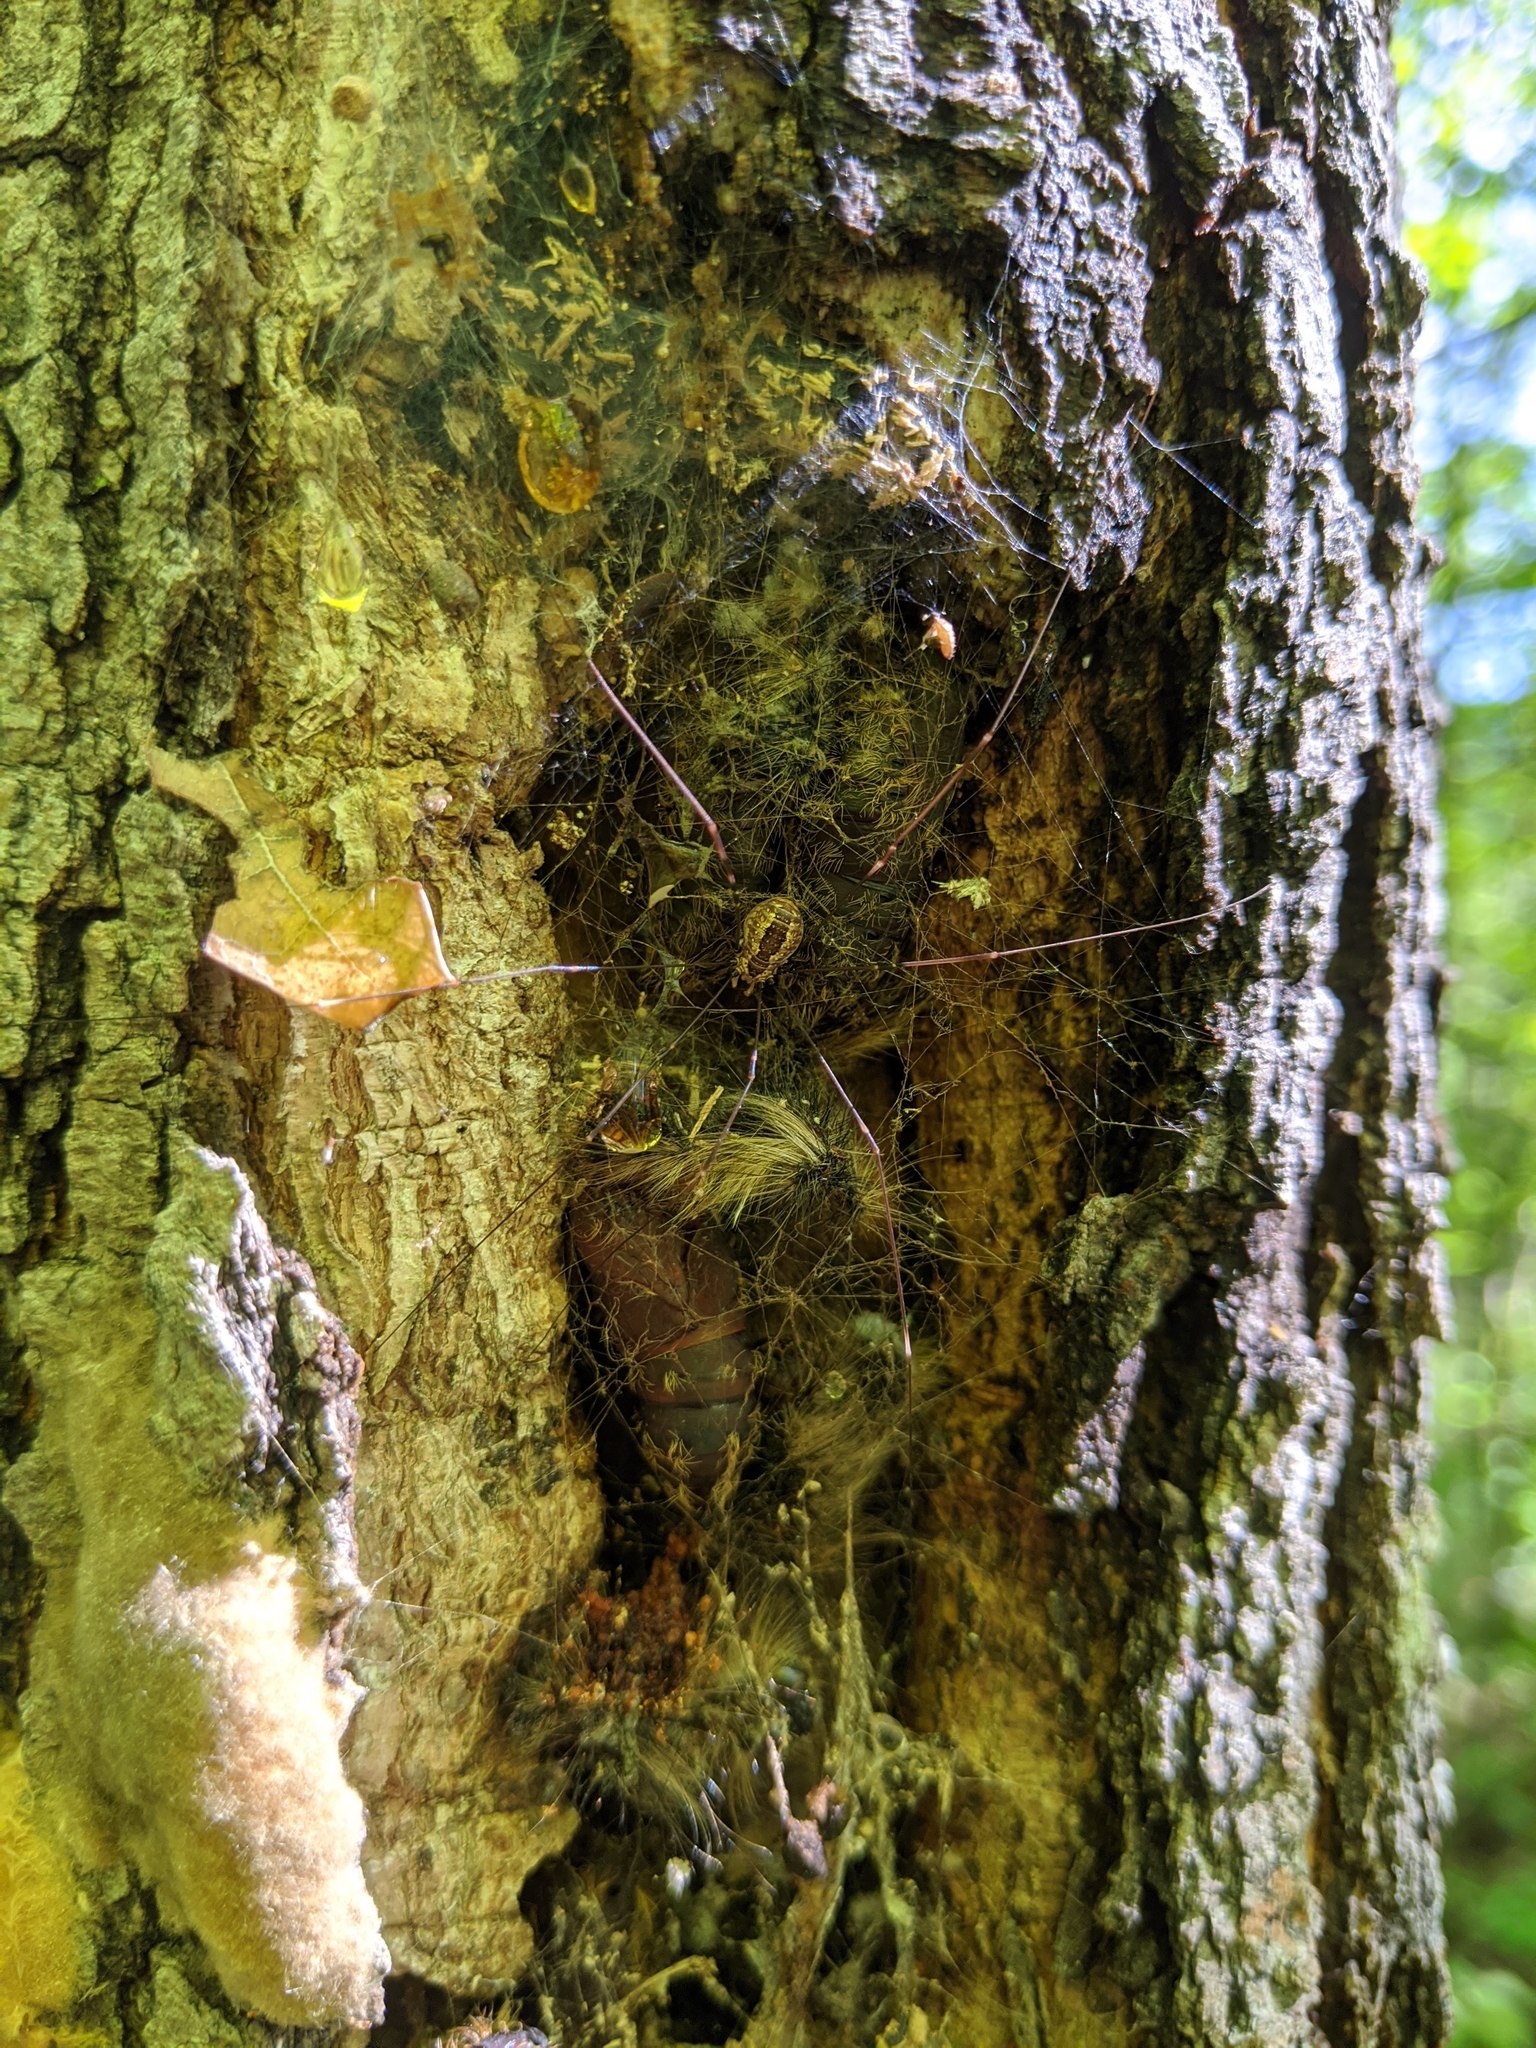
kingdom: Animalia
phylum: Arthropoda
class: Arachnida
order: Opiliones
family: Sclerosomatidae
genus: Leiobunum
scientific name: Leiobunum aldrichi
